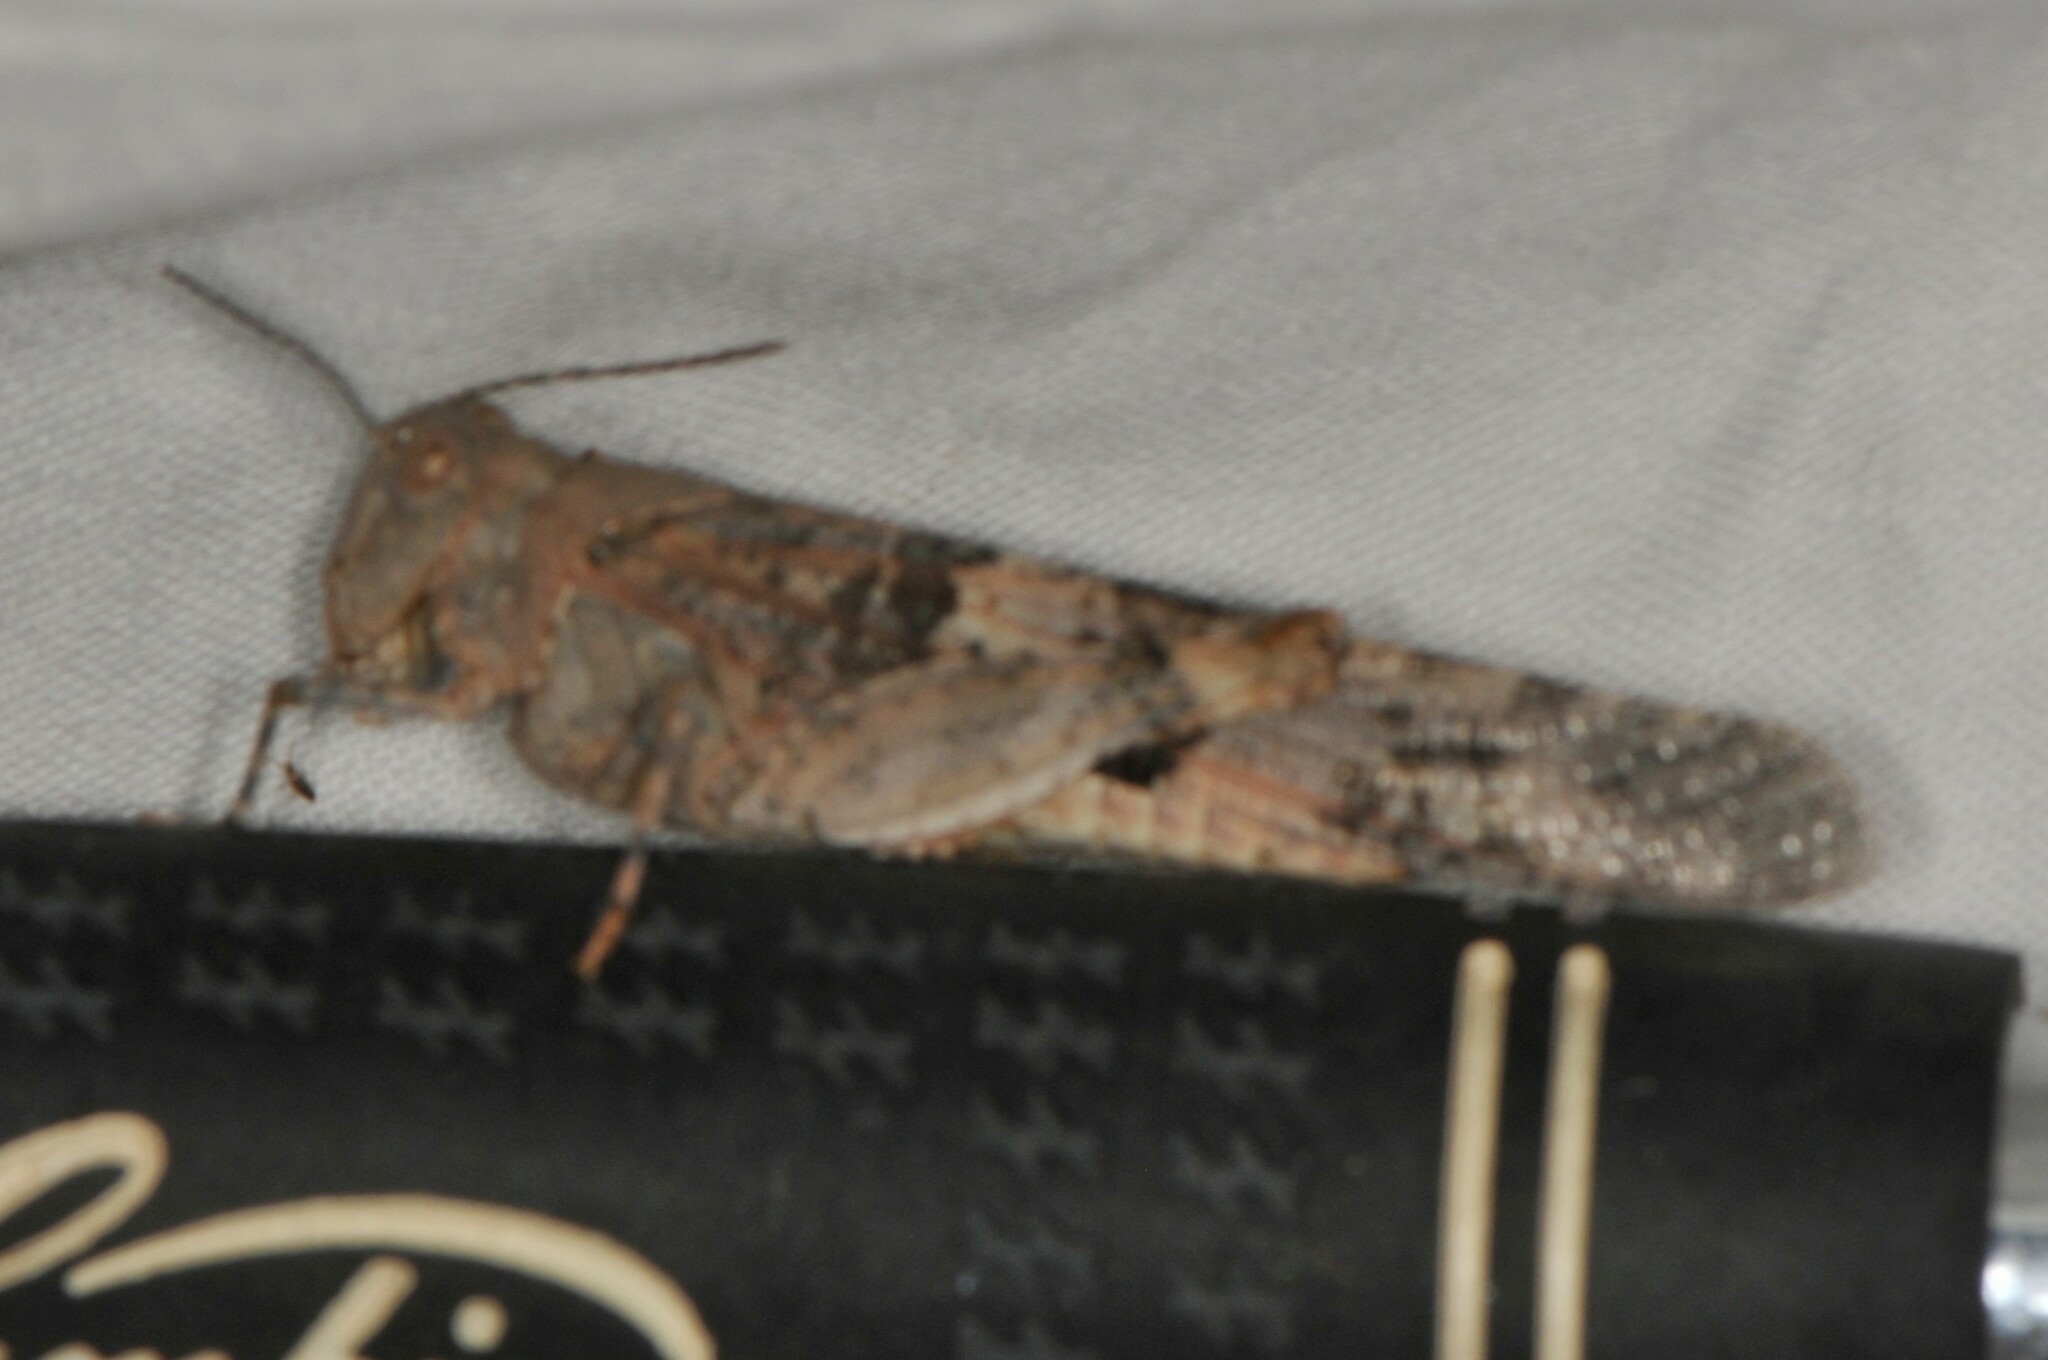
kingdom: Animalia
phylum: Arthropoda
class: Insecta
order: Orthoptera
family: Acrididae
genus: Trimerotropis
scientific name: Trimerotropis pallidipennis
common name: Pallid-winged grasshopper
